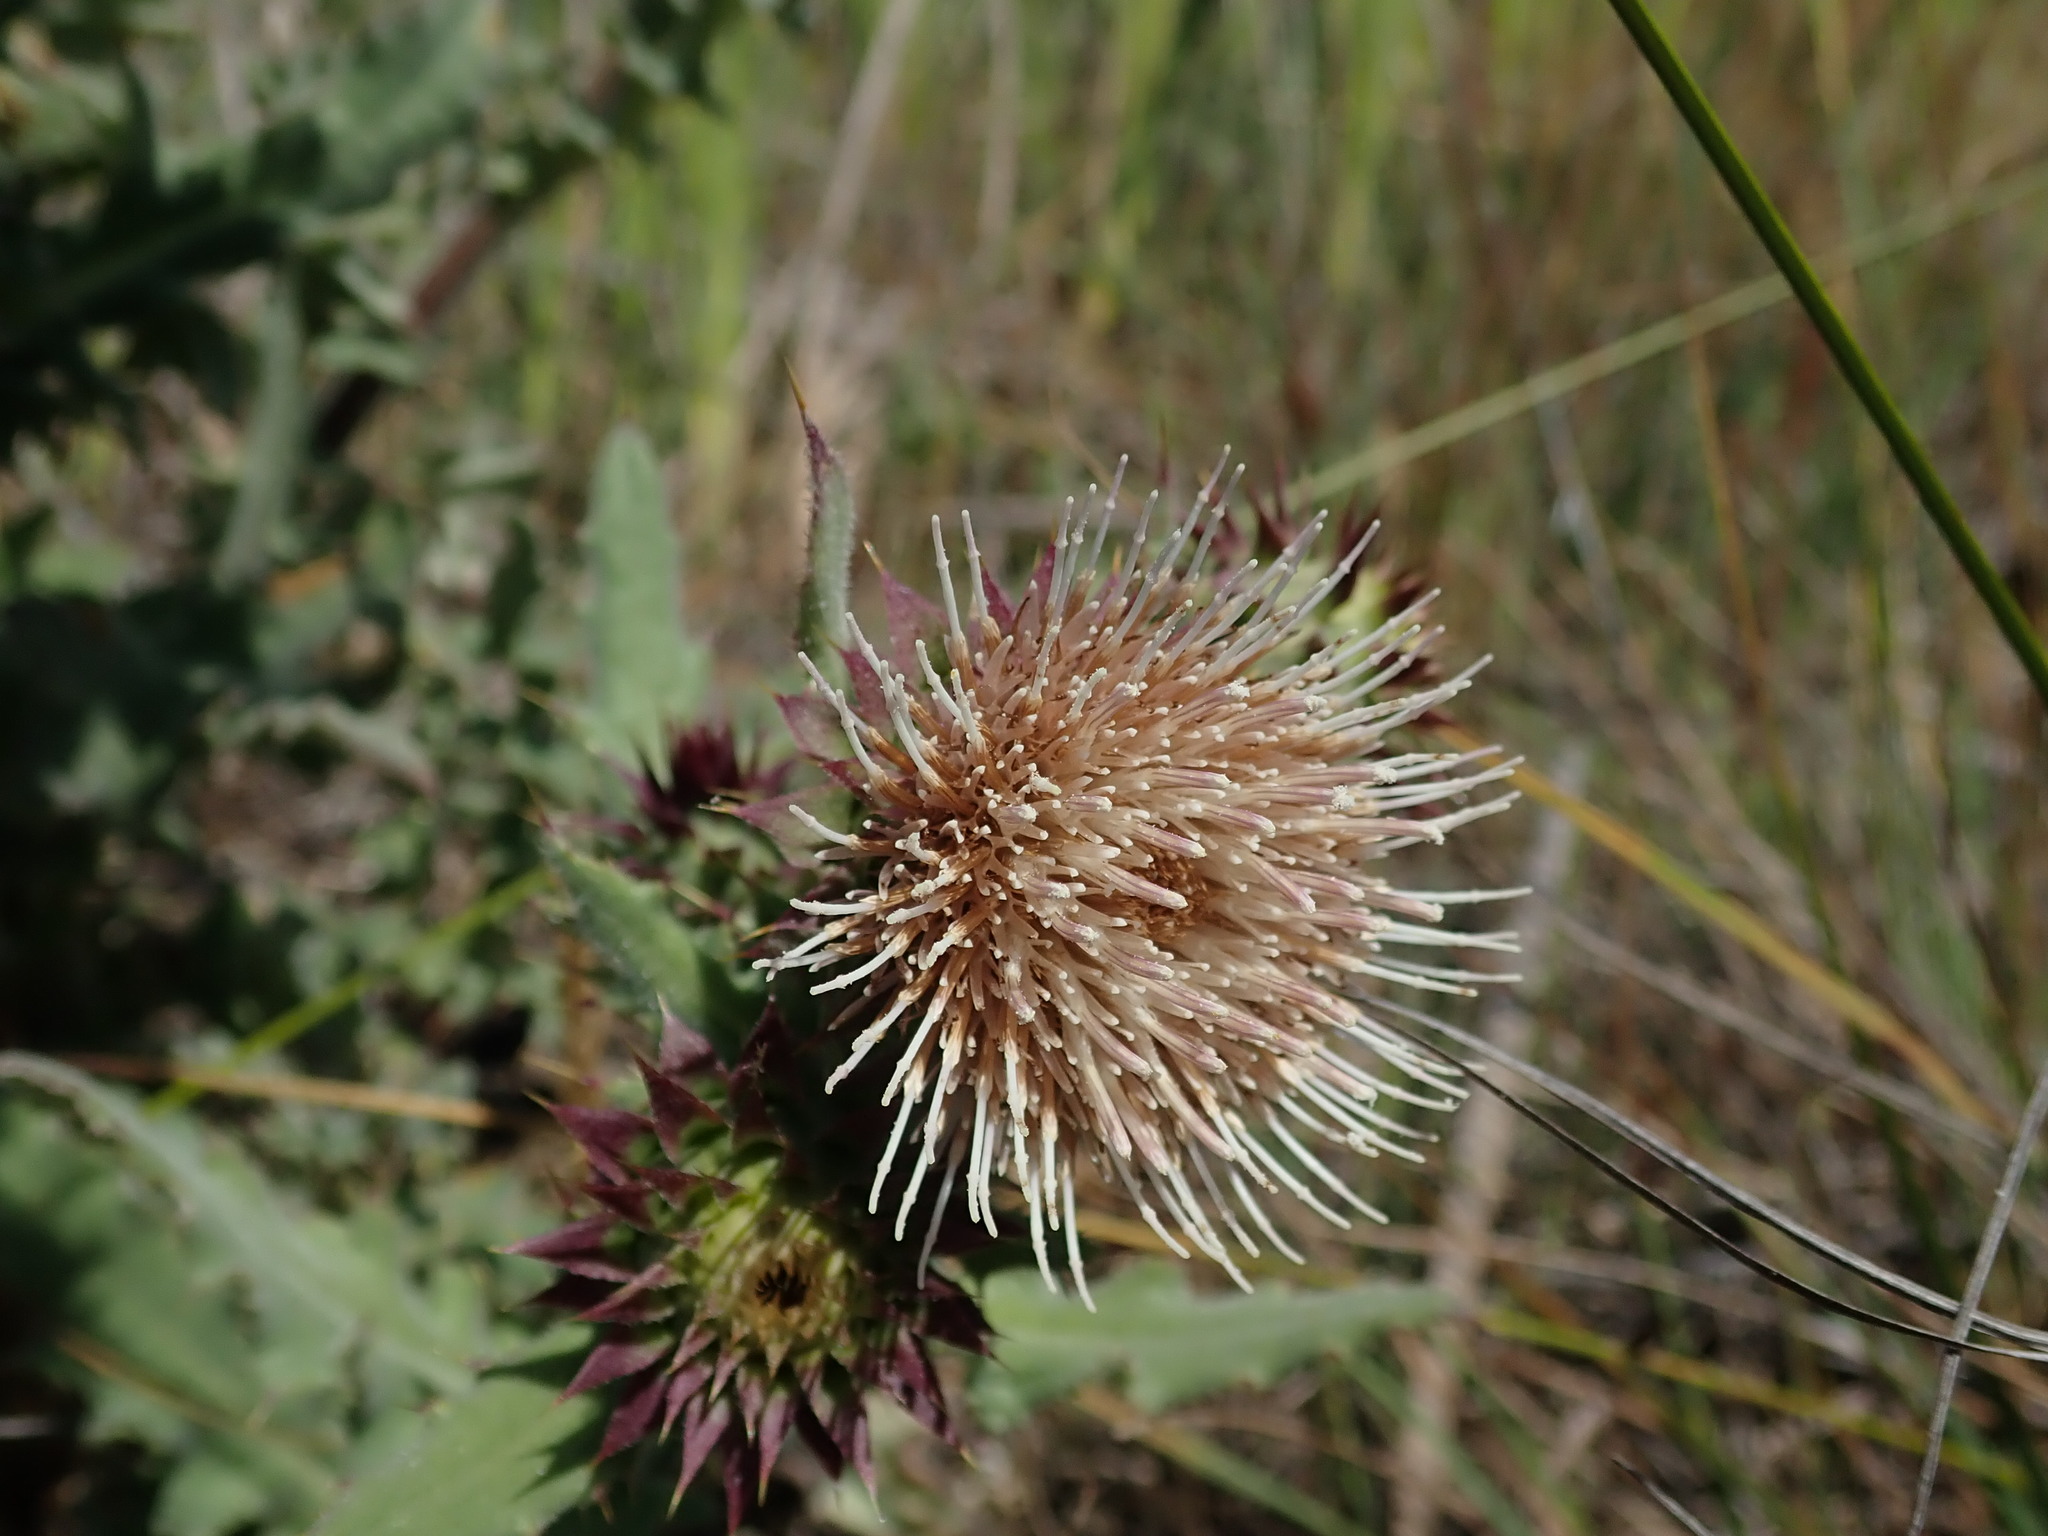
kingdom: Plantae
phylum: Tracheophyta
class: Magnoliopsida
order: Asterales
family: Asteraceae
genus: Cirsium
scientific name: Cirsium fontinale
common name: Fountain thistle
